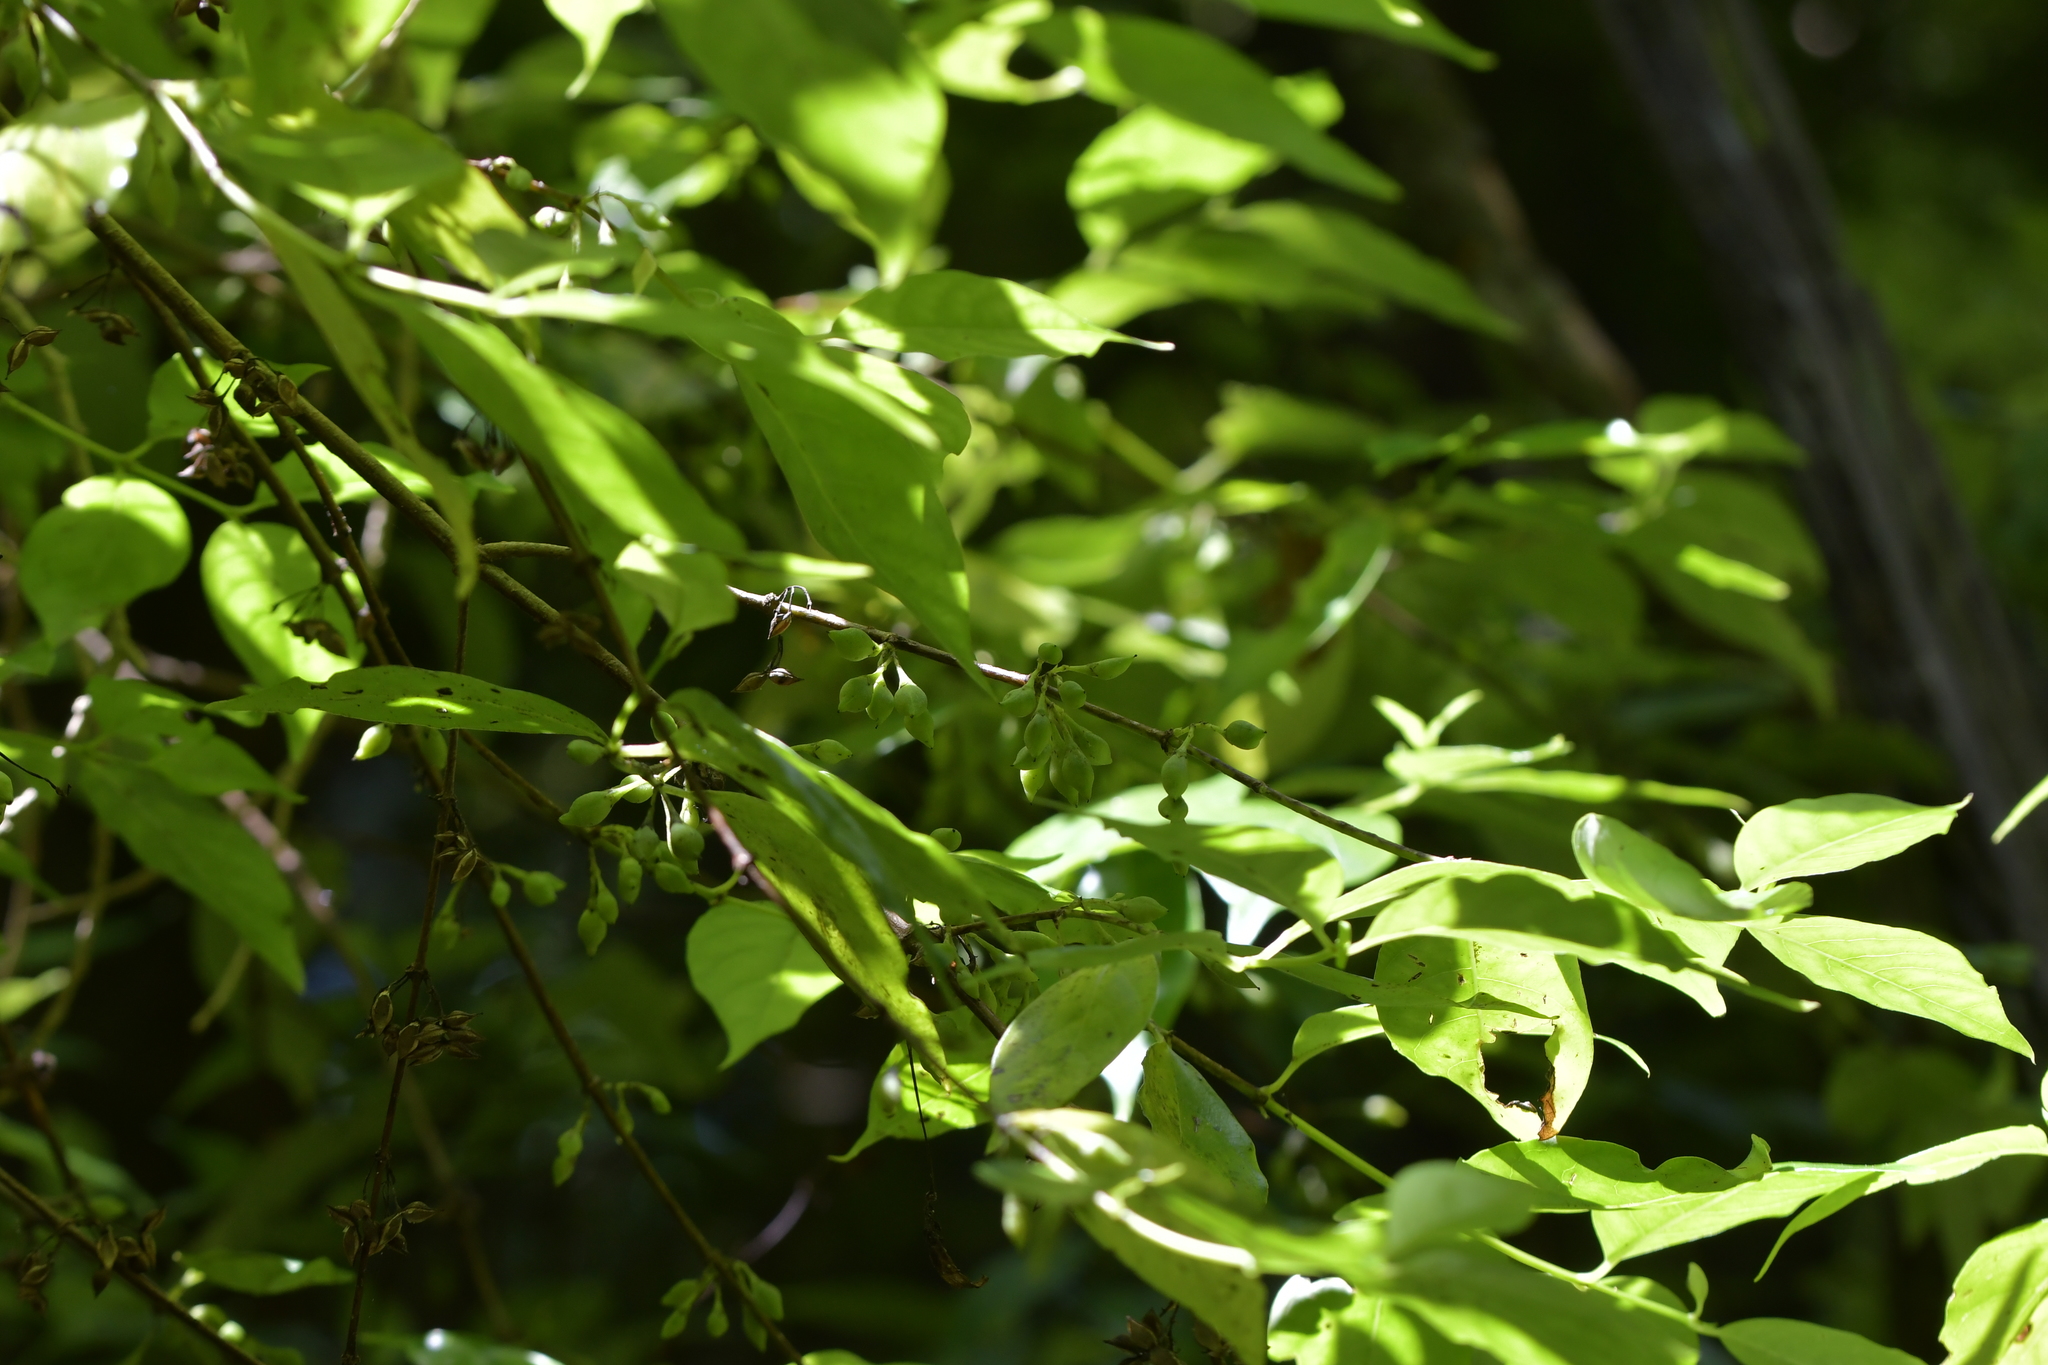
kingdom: Plantae
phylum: Tracheophyta
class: Magnoliopsida
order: Gentianales
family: Loganiaceae
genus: Geniostoma
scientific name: Geniostoma ligustrifolium
